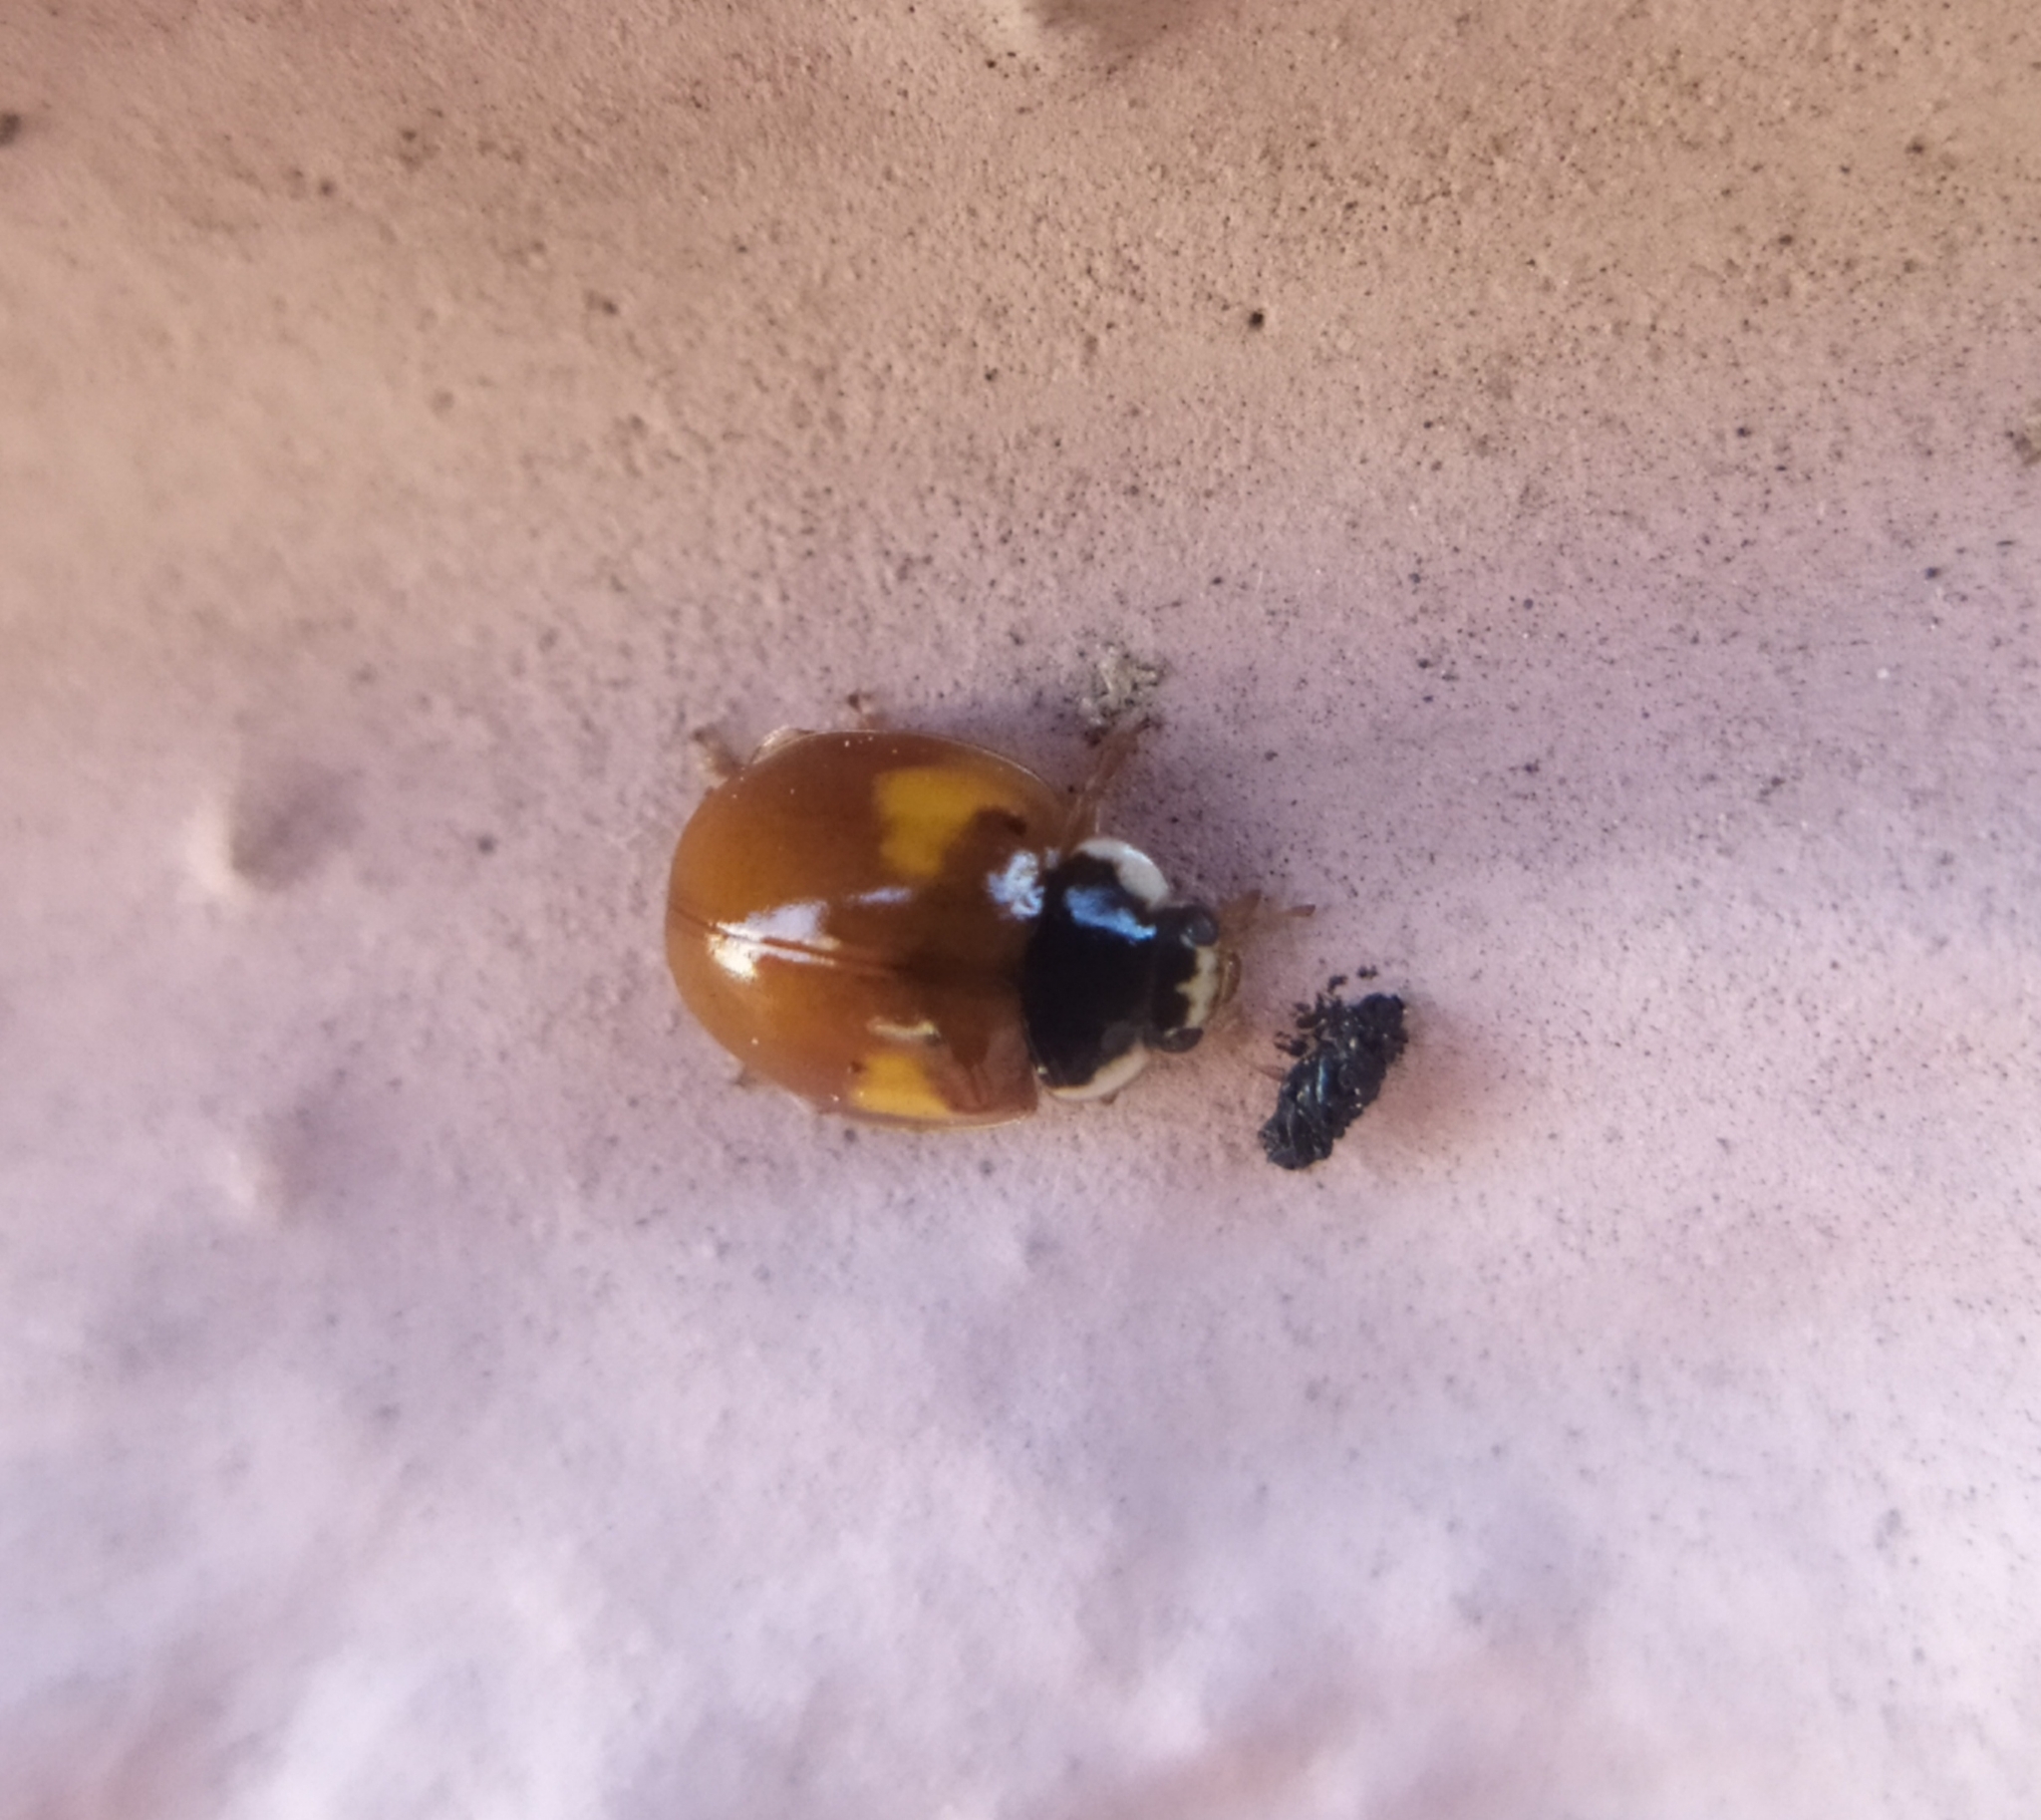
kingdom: Animalia
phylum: Arthropoda
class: Insecta
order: Coleoptera
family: Coccinellidae
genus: Adalia
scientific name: Adalia decempunctata
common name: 10-spot ladybird
